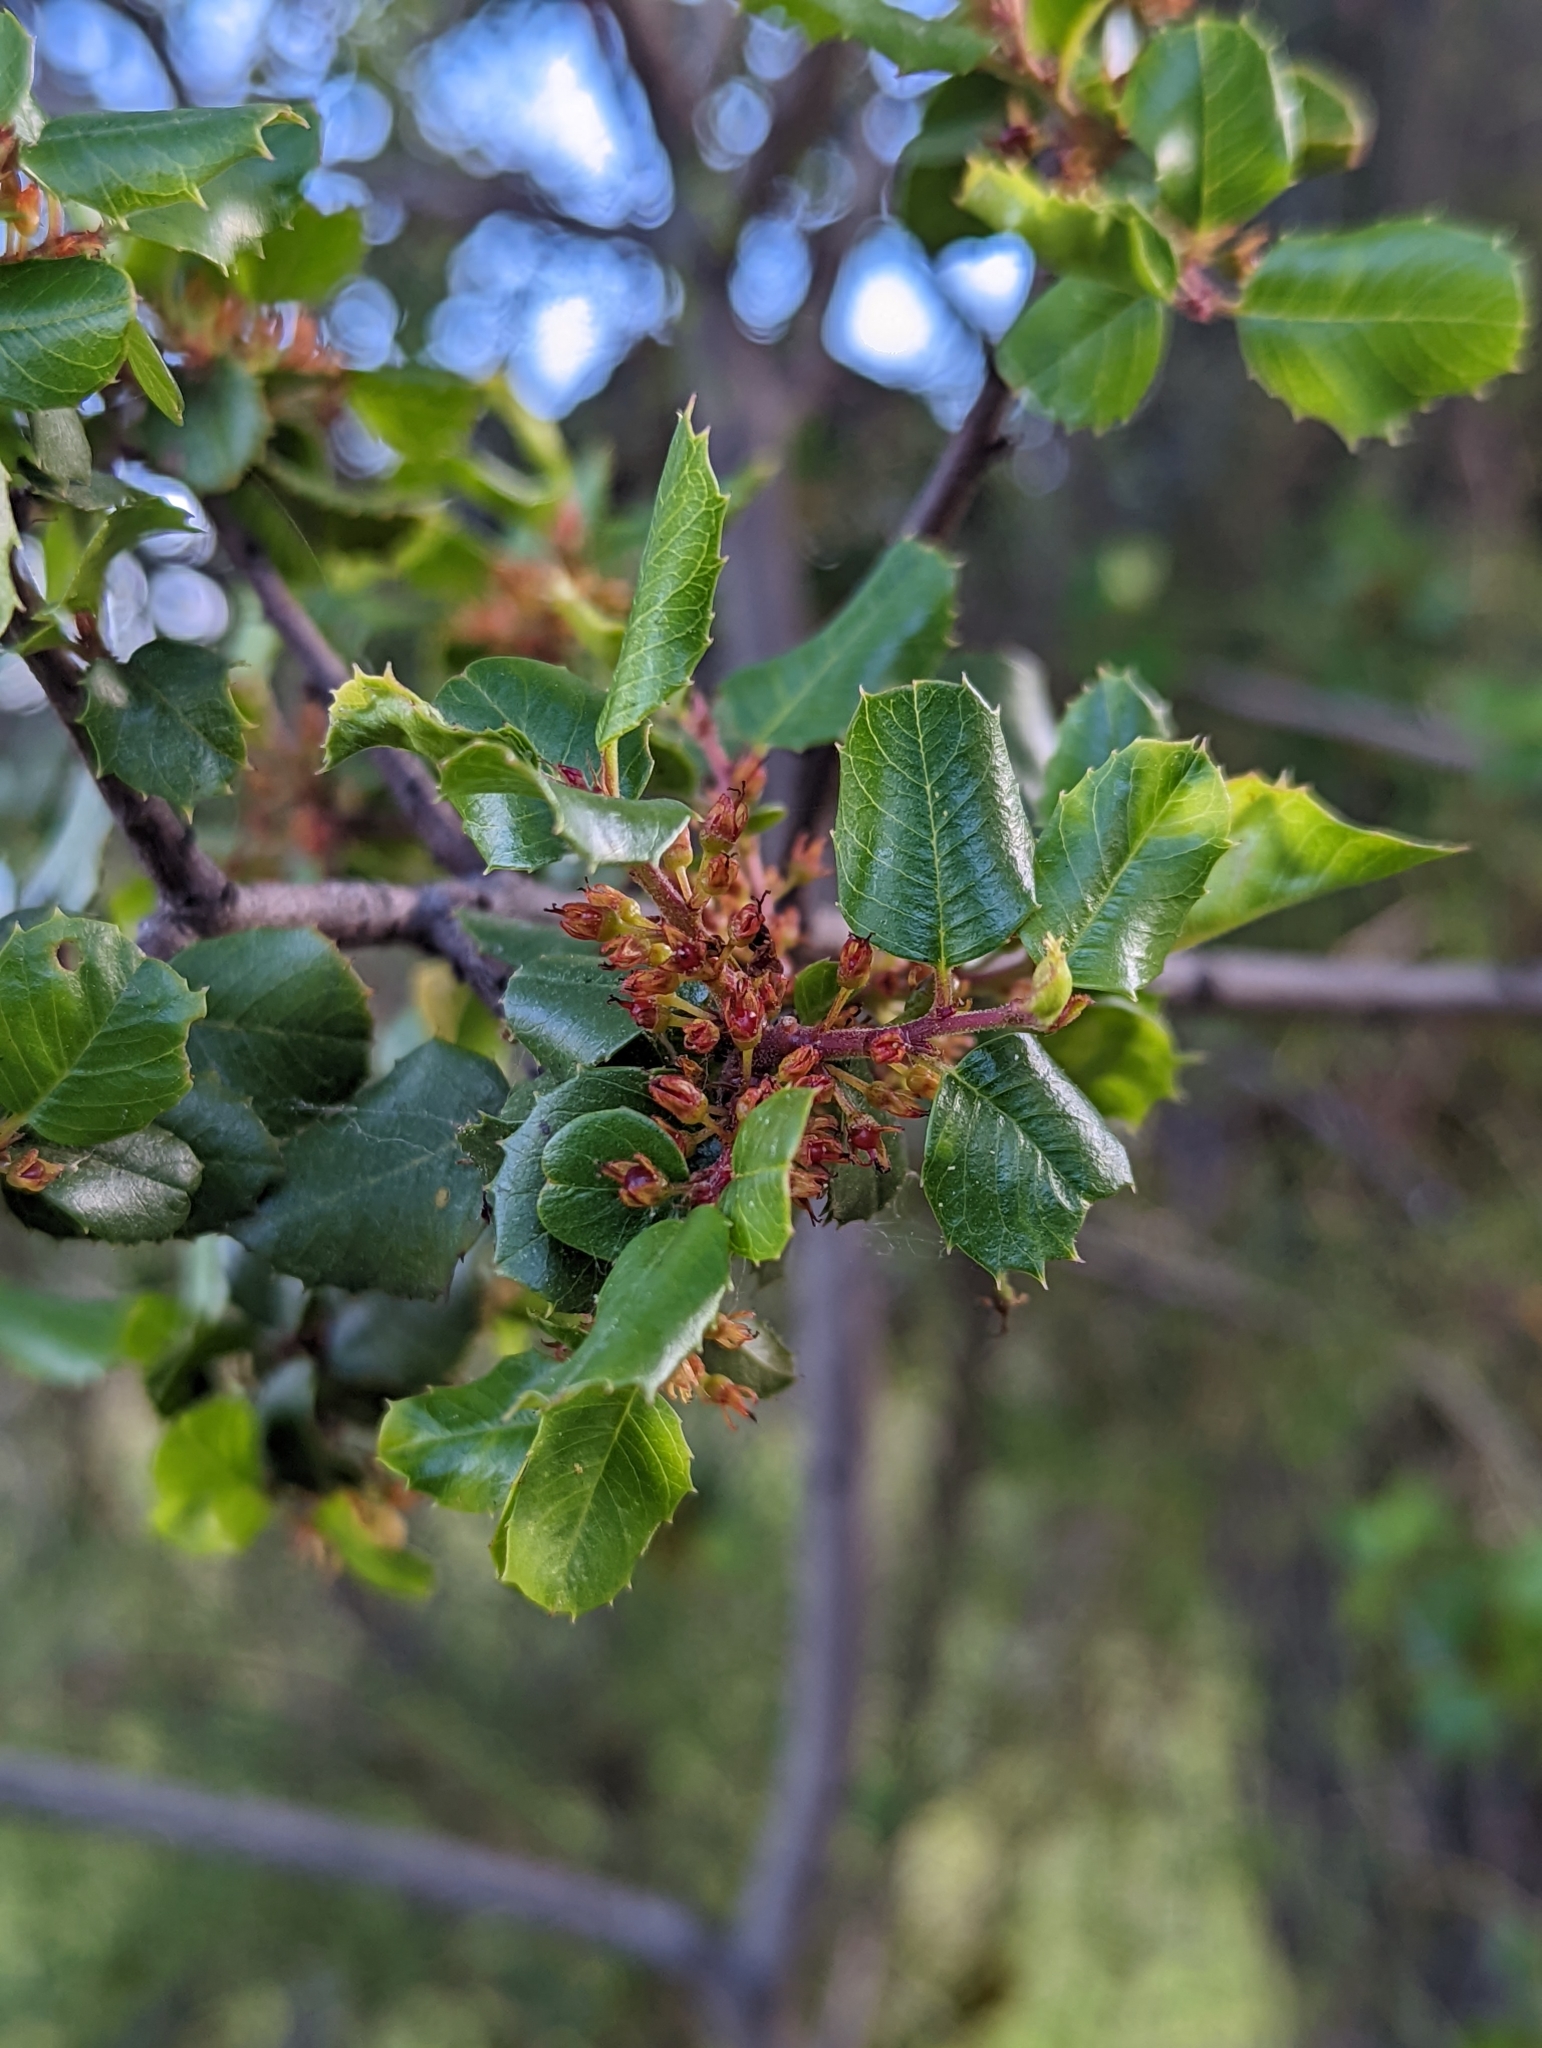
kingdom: Plantae
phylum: Tracheophyta
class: Magnoliopsida
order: Rosales
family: Rhamnaceae
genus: Endotropis
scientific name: Endotropis crocea
